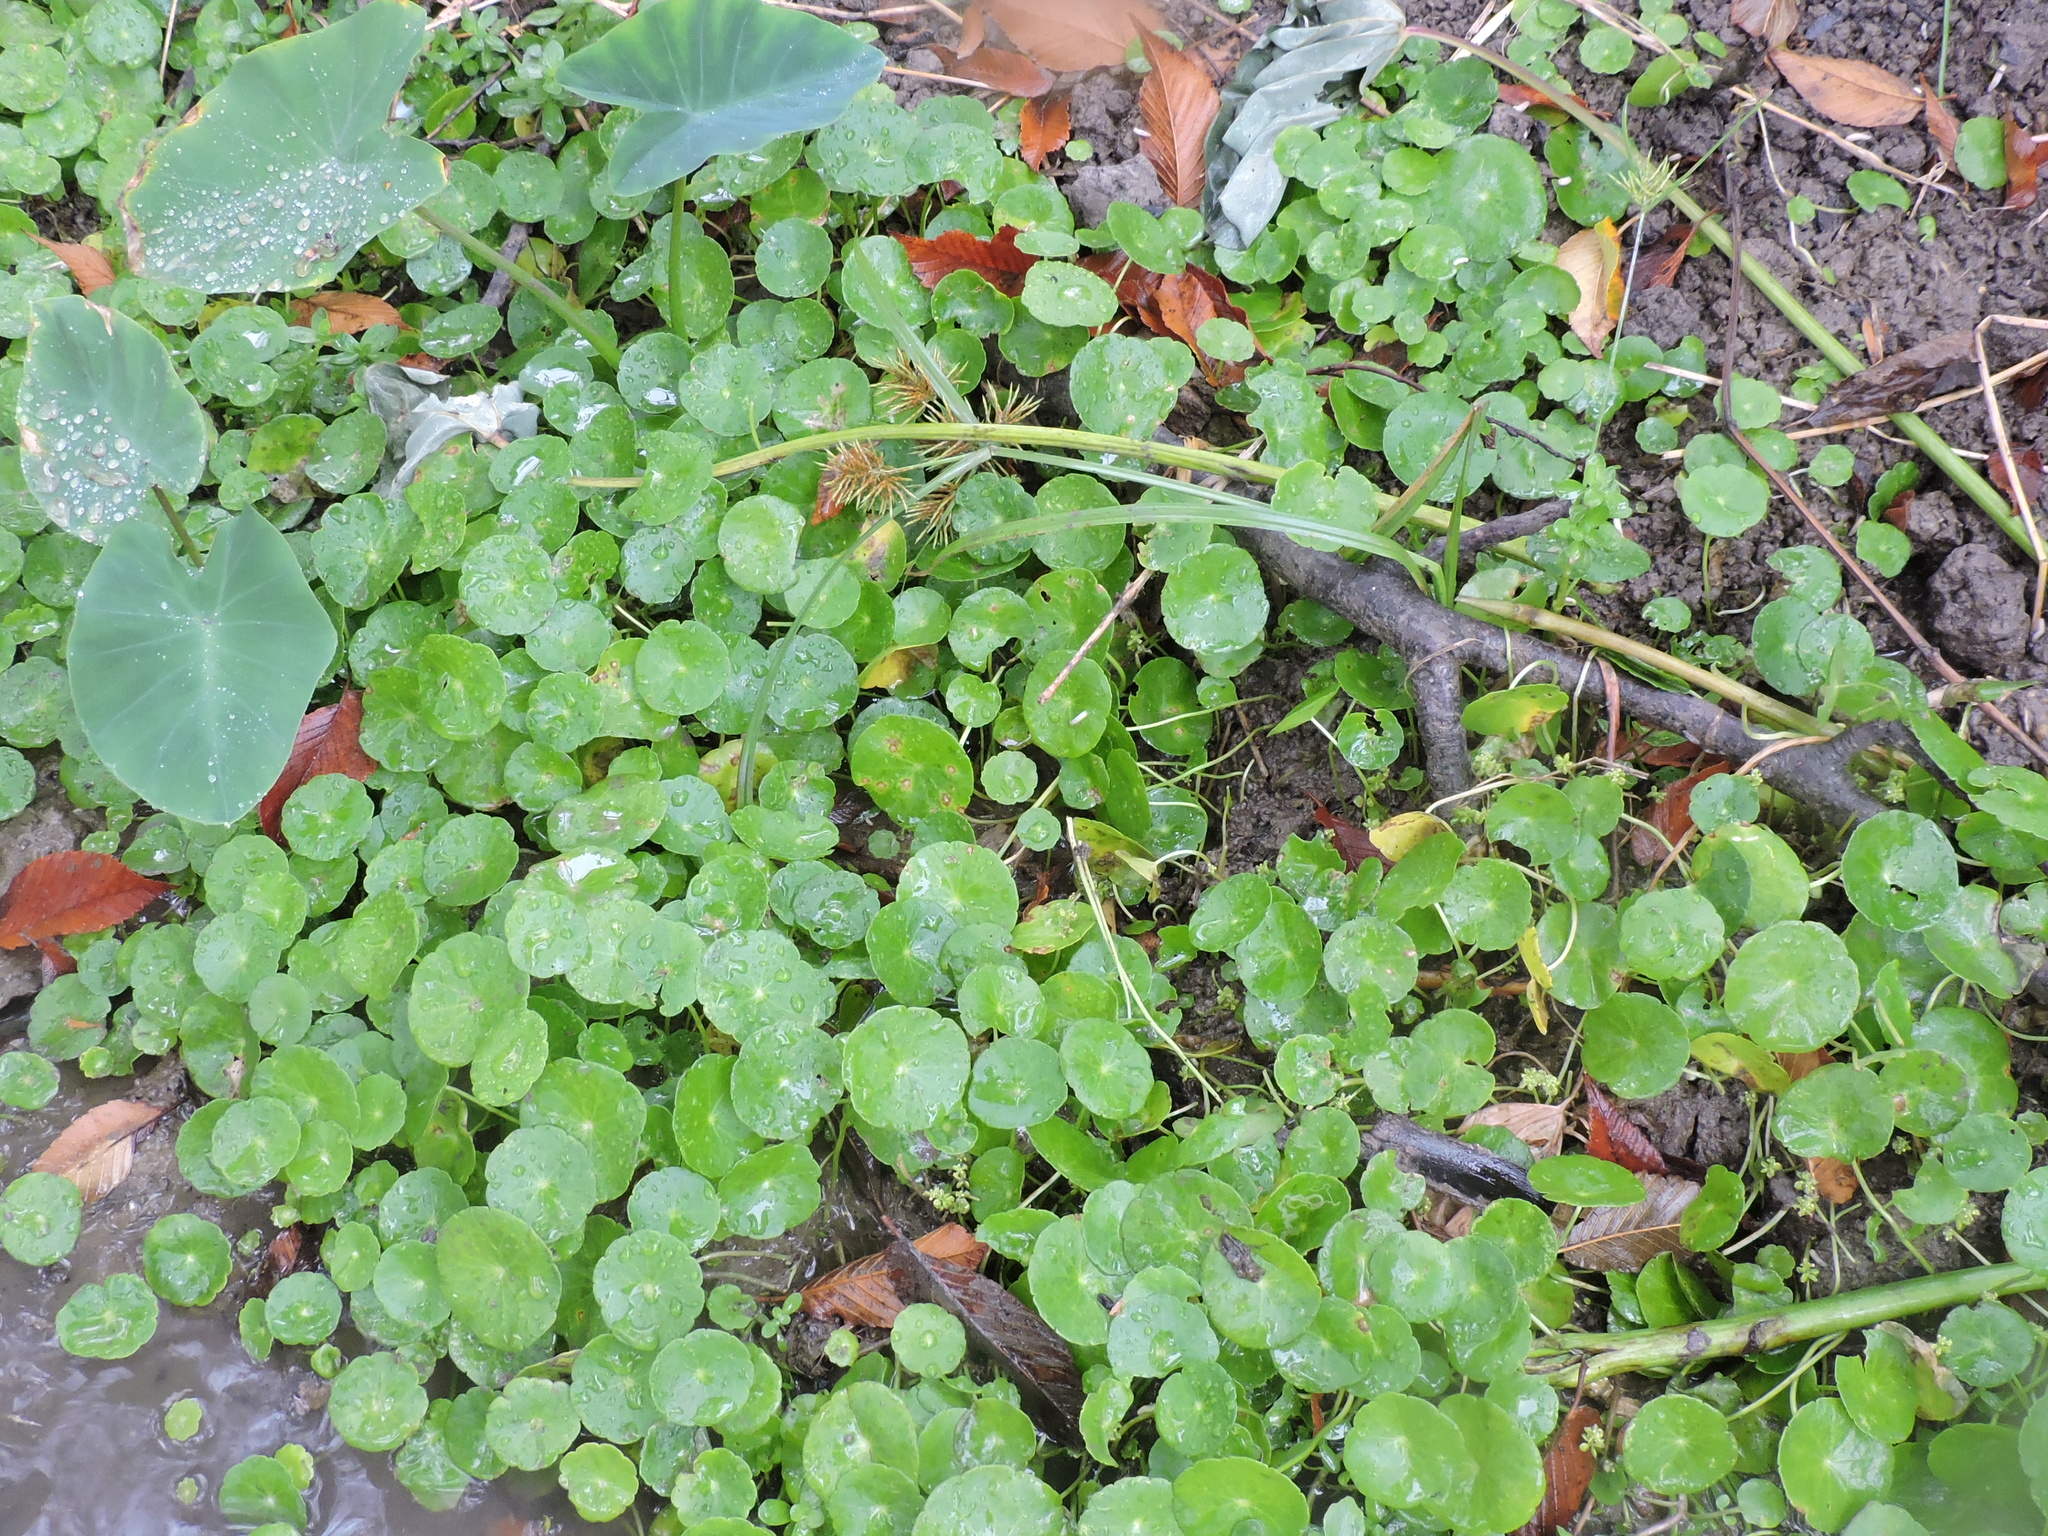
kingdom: Plantae
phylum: Tracheophyta
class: Magnoliopsida
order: Apiales
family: Araliaceae
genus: Hydrocotyle
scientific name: Hydrocotyle verticillata
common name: Whorled marshpennywort
